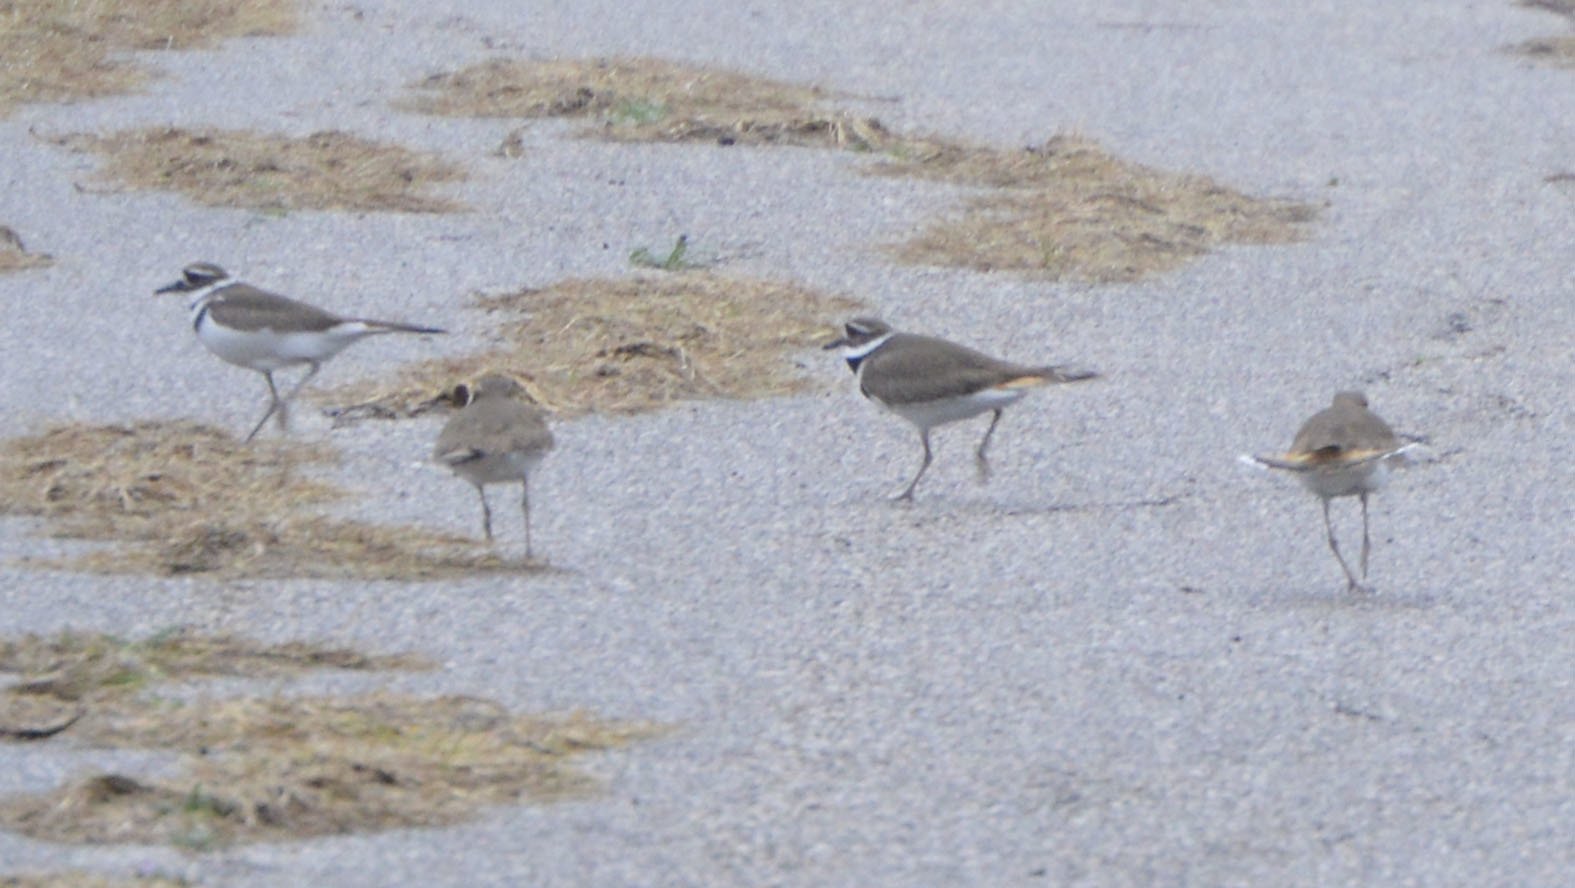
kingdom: Animalia
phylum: Chordata
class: Aves
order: Charadriiformes
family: Charadriidae
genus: Charadrius
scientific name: Charadrius vociferus
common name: Killdeer
